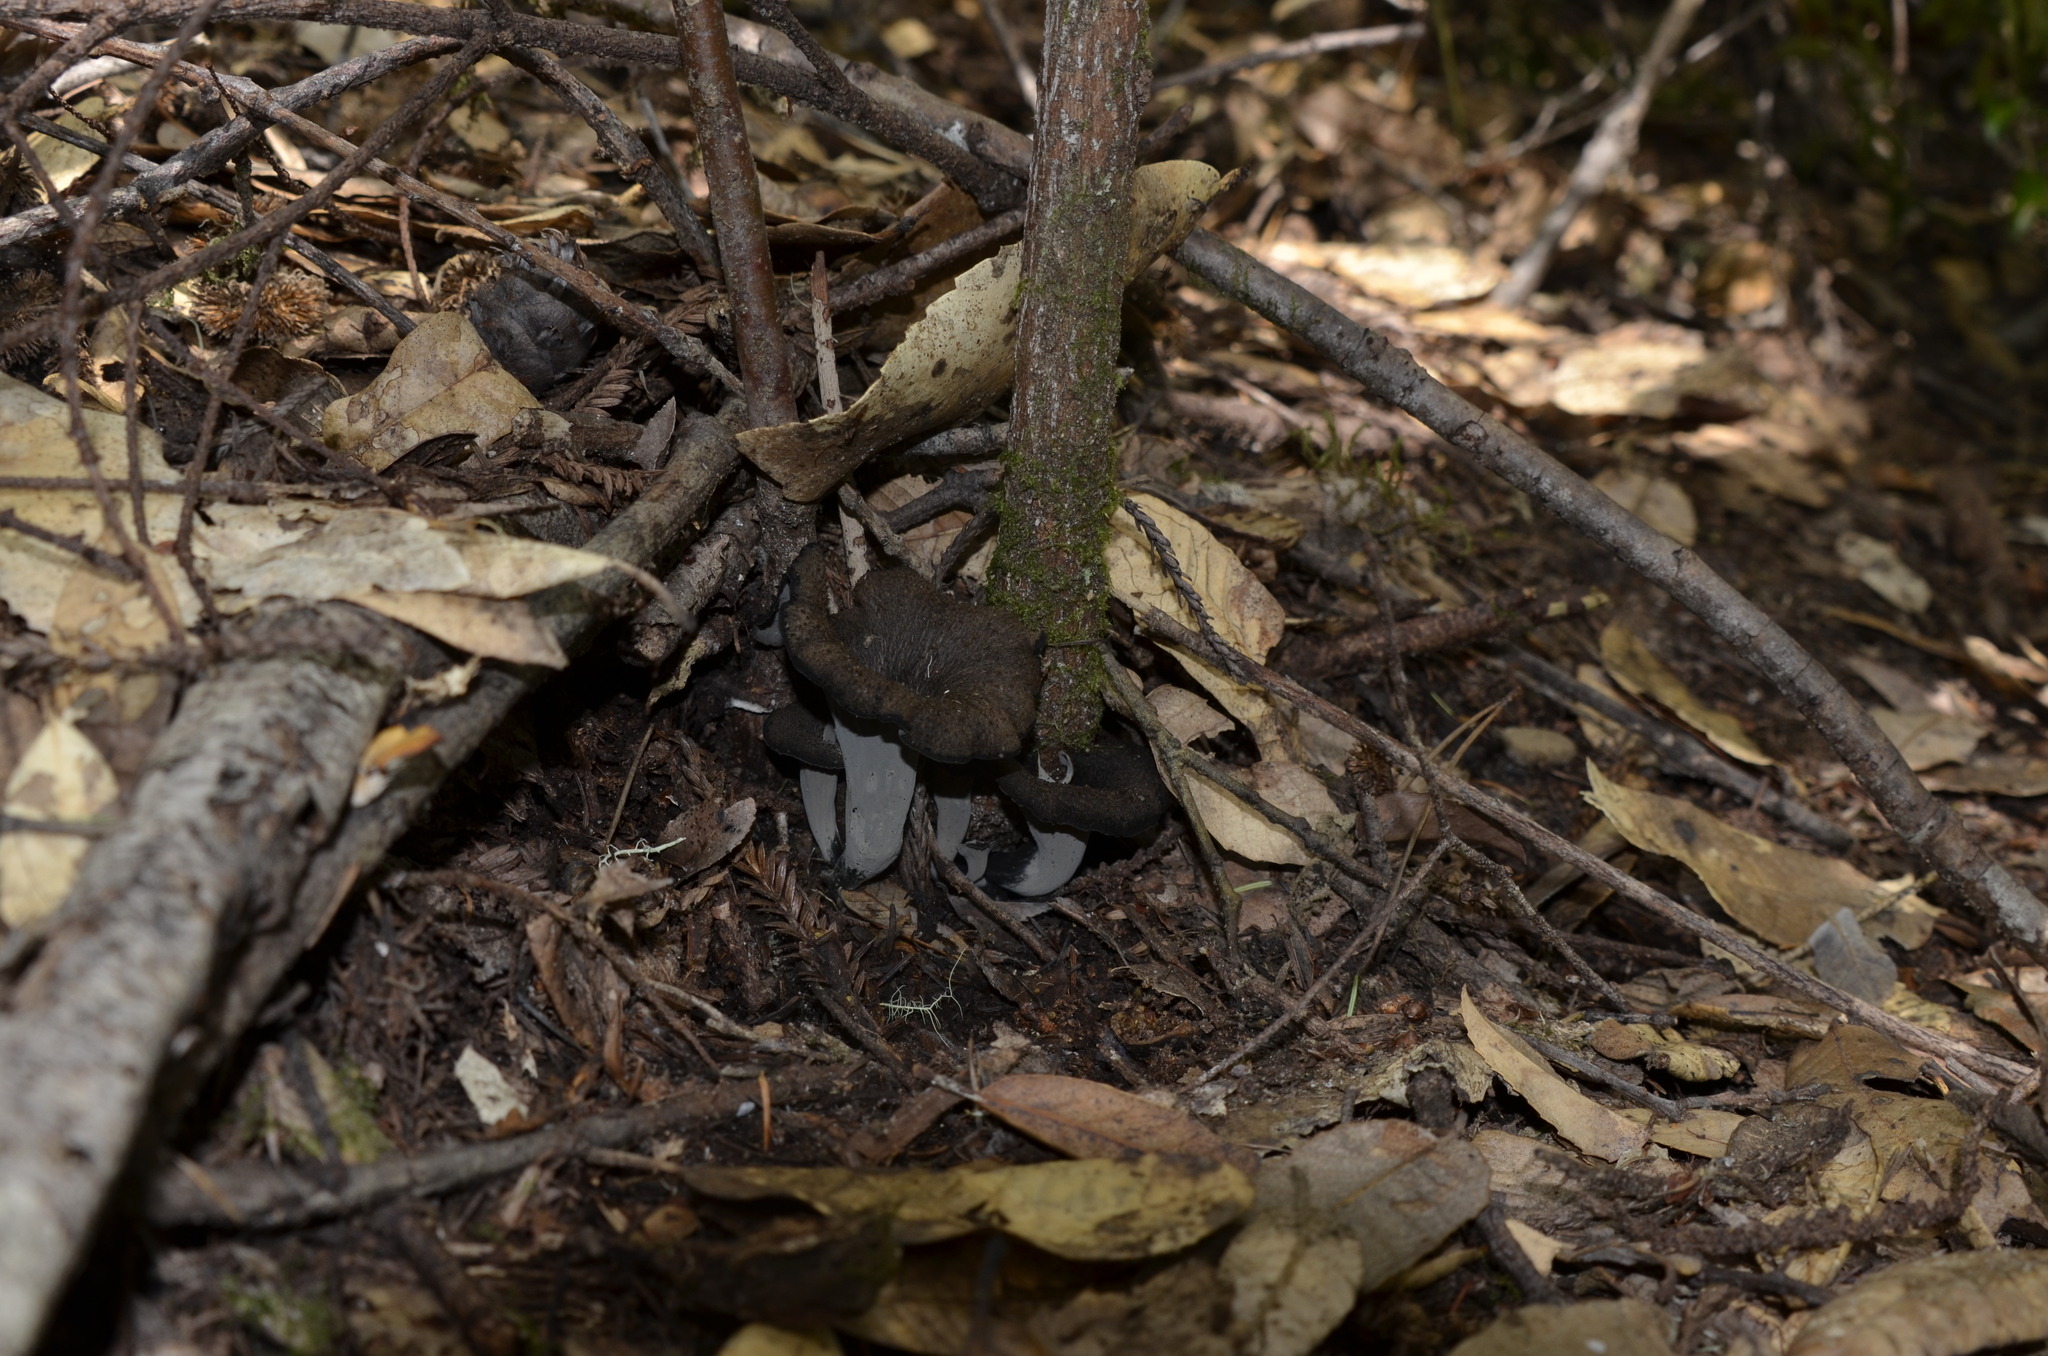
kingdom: Fungi
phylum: Basidiomycota
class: Agaricomycetes
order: Cantharellales
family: Hydnaceae
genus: Craterellus
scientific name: Craterellus calicornucopioides
